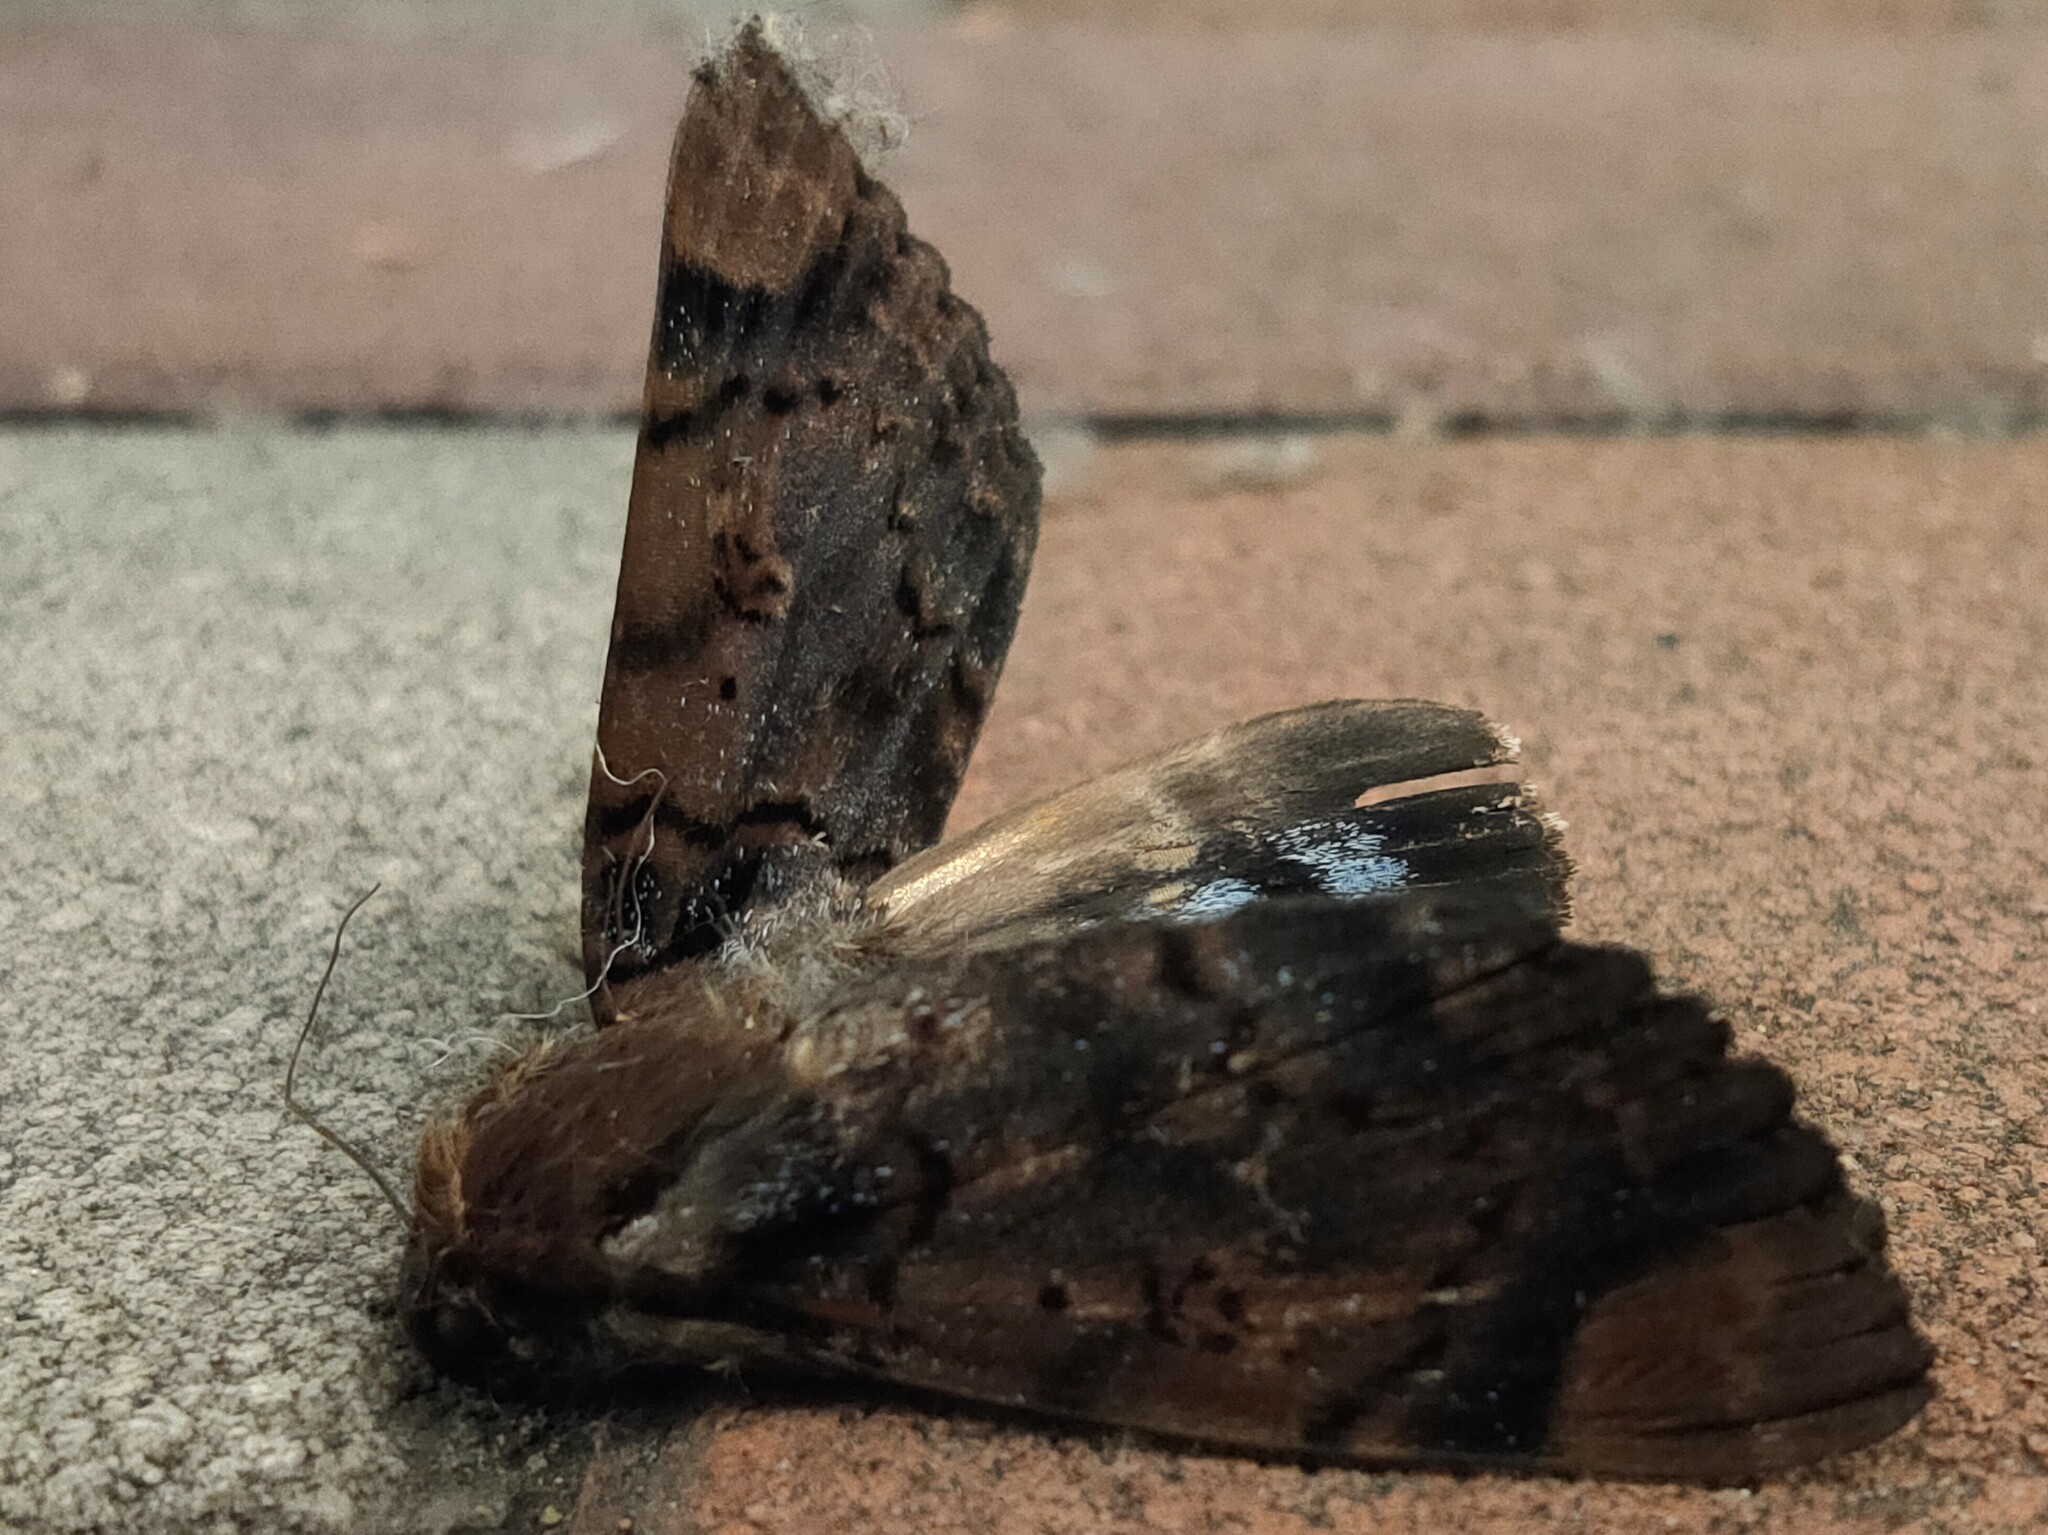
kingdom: Animalia
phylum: Arthropoda
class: Insecta
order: Lepidoptera
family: Erebidae
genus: Arcte
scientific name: Arcte coerula
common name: Ramie moth
